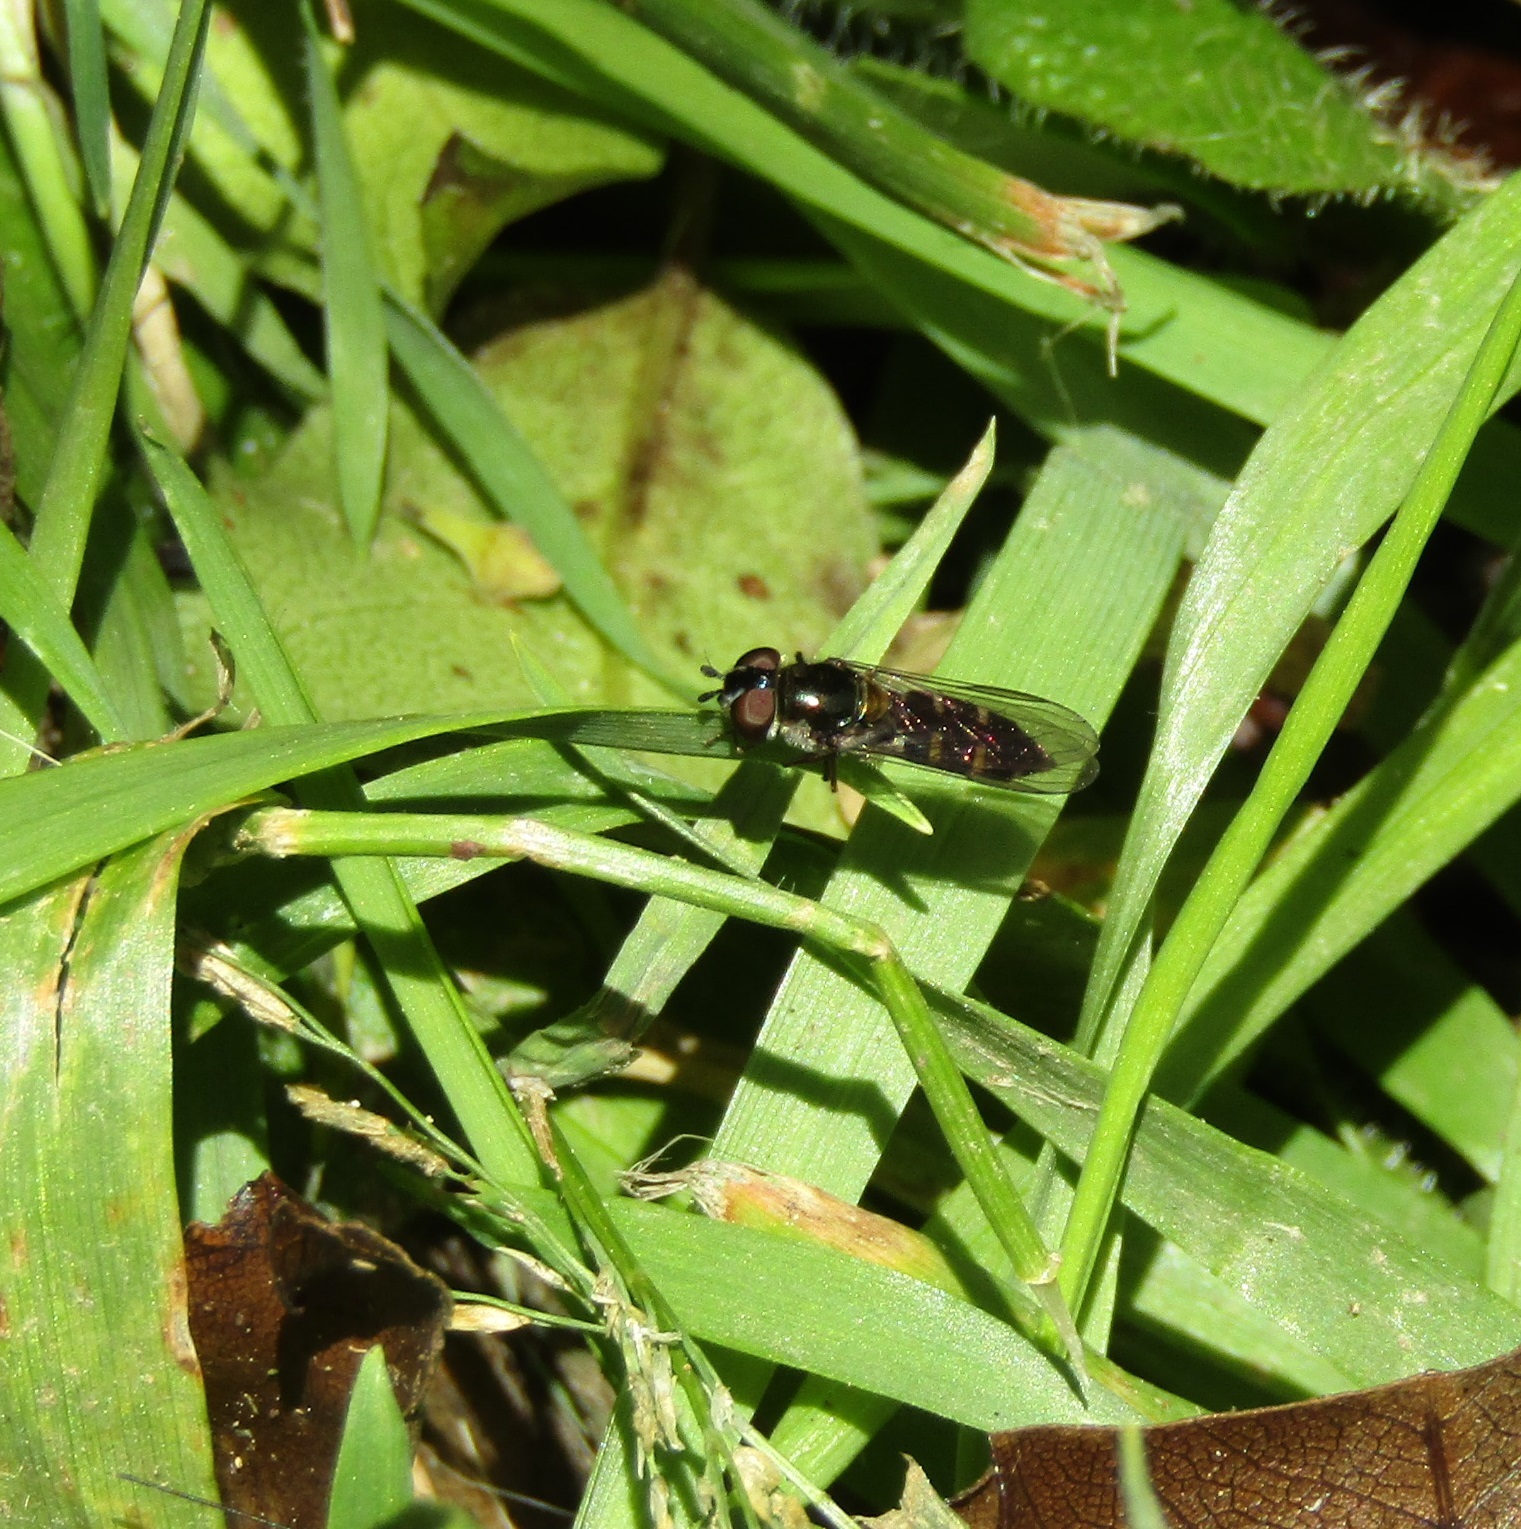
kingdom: Animalia
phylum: Arthropoda
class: Insecta
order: Diptera
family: Syrphidae
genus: Melangyna
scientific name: Melangyna novaezelandiae
